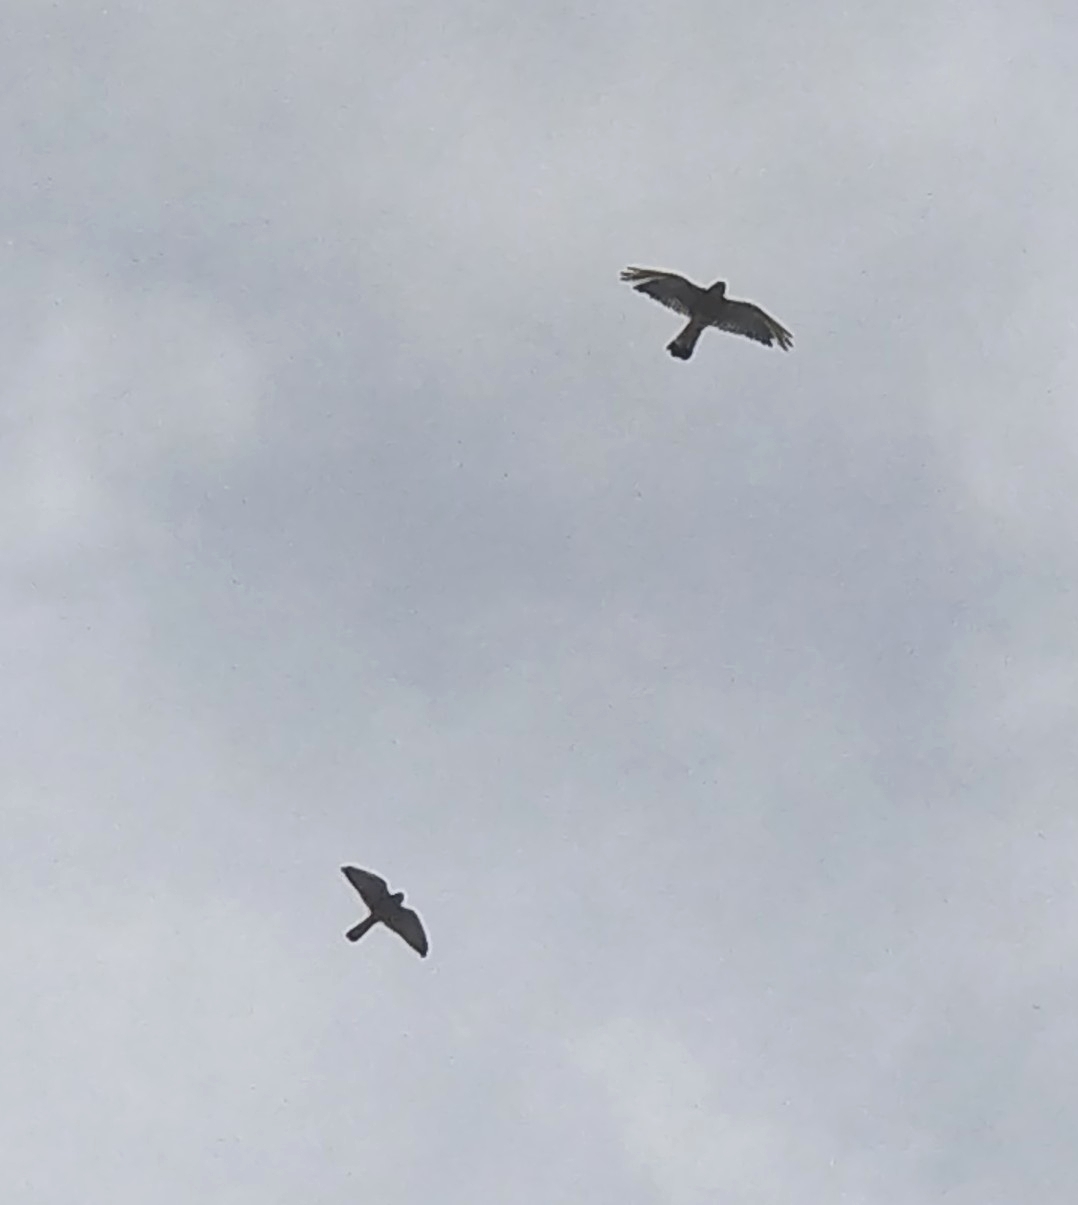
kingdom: Animalia
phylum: Chordata
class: Aves
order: Falconiformes
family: Falconidae
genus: Falco
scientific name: Falco tinnunculus
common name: Common kestrel
